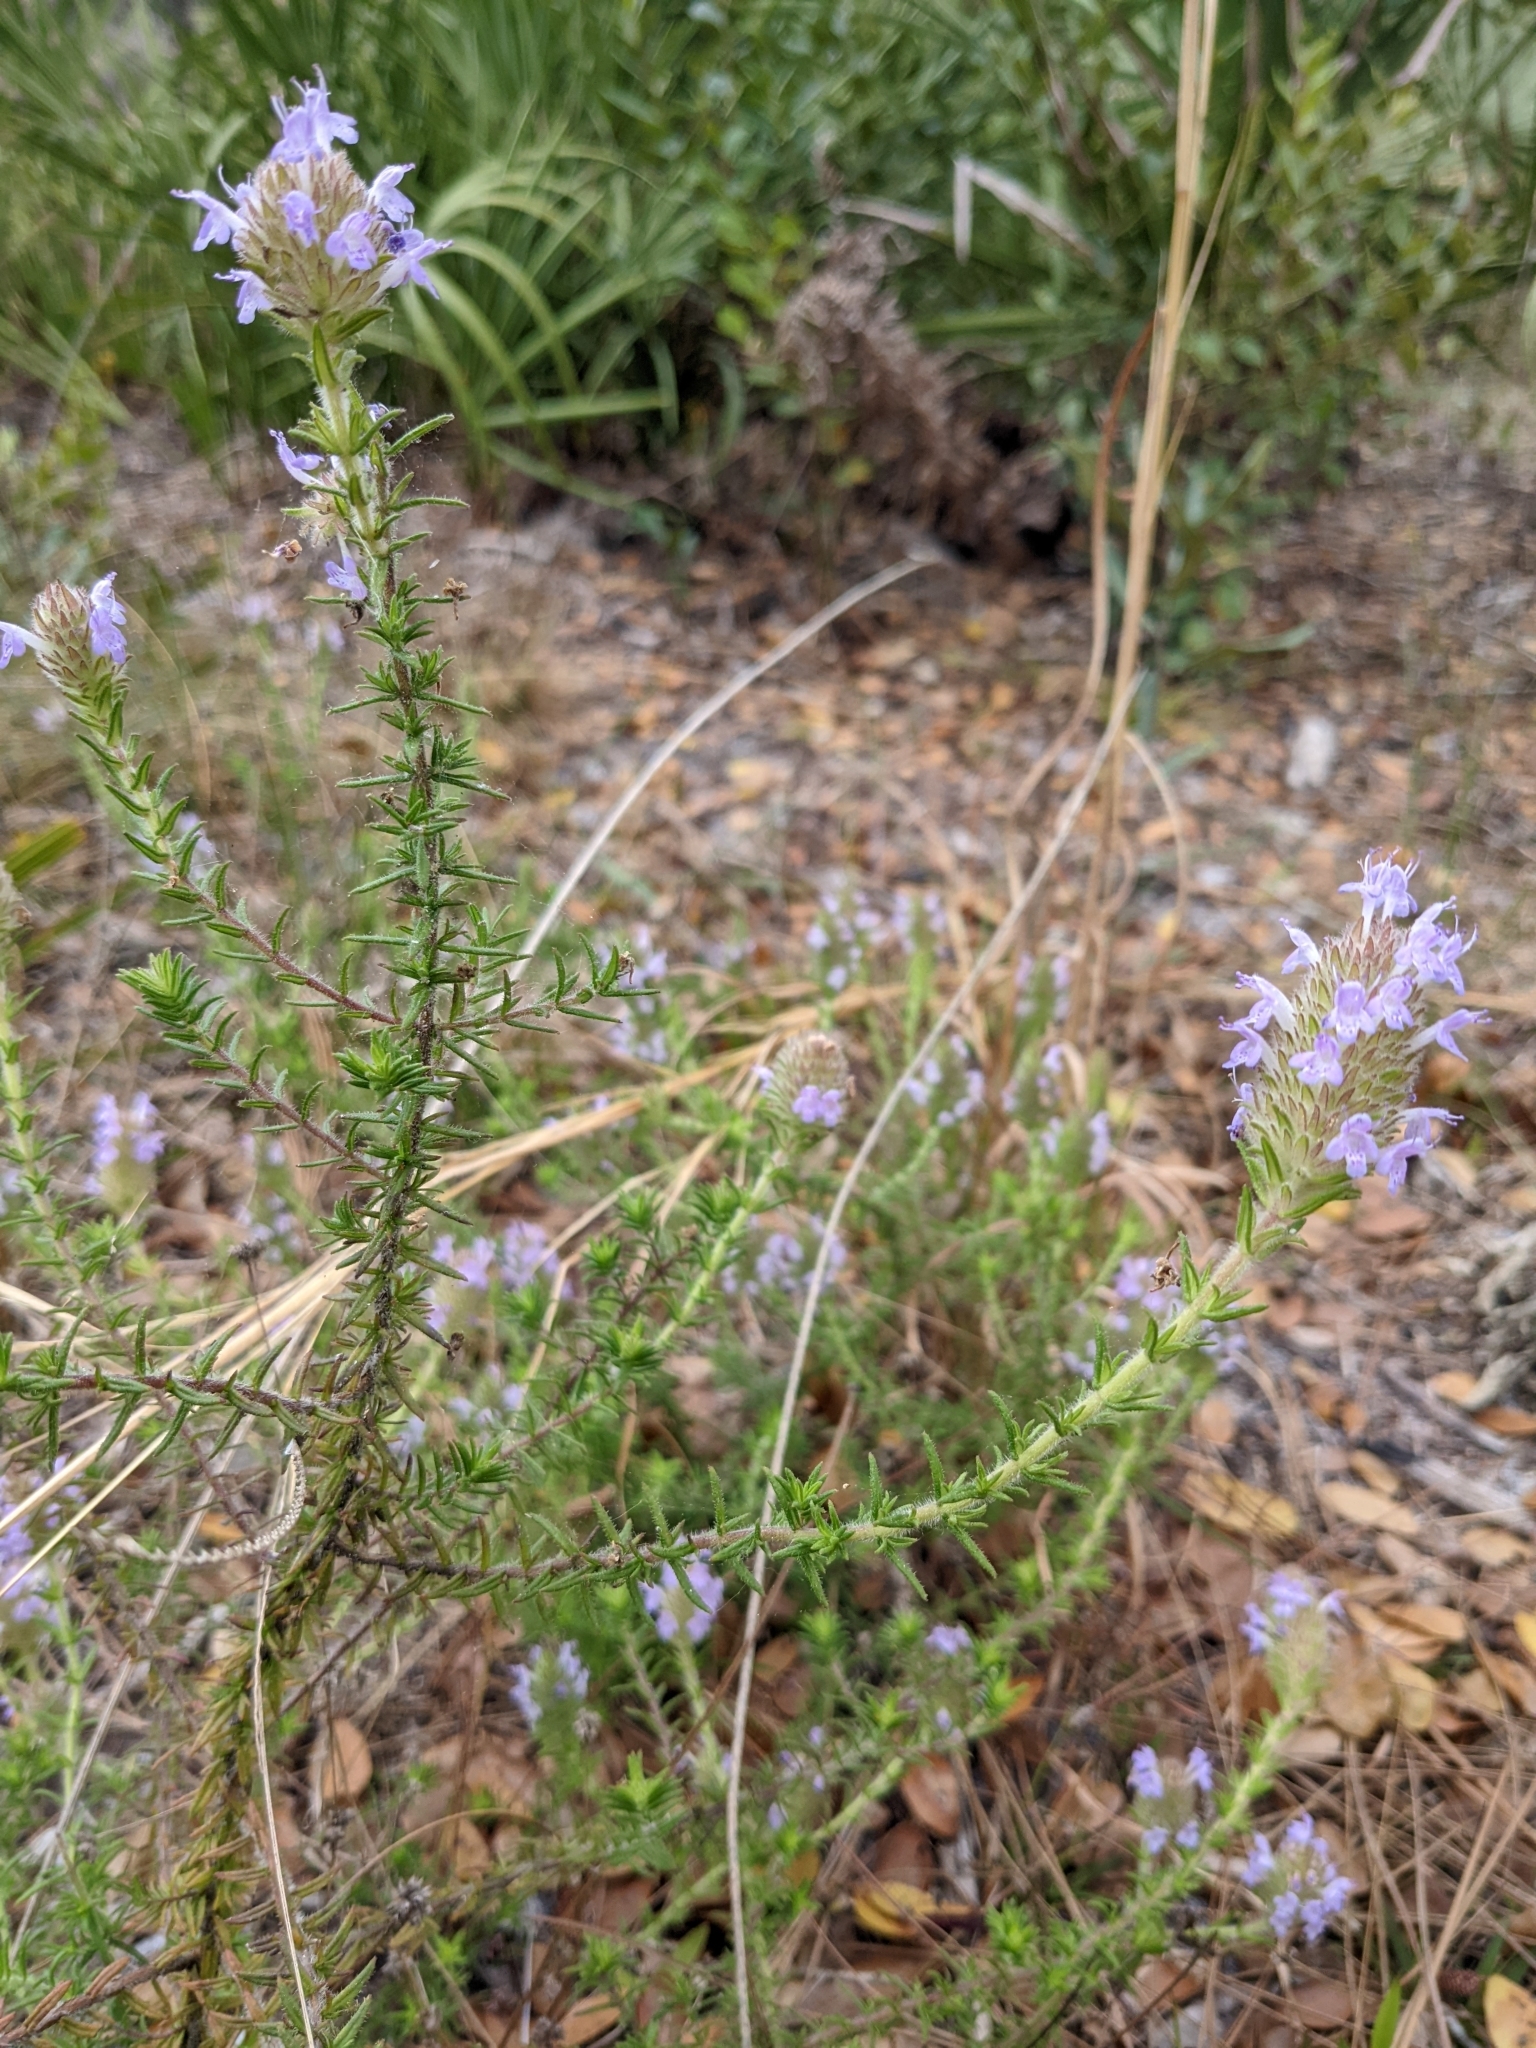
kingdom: Plantae
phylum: Tracheophyta
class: Magnoliopsida
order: Lamiales
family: Lamiaceae
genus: Piloblephis
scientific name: Piloblephis rigida
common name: Wild pennyroyal
